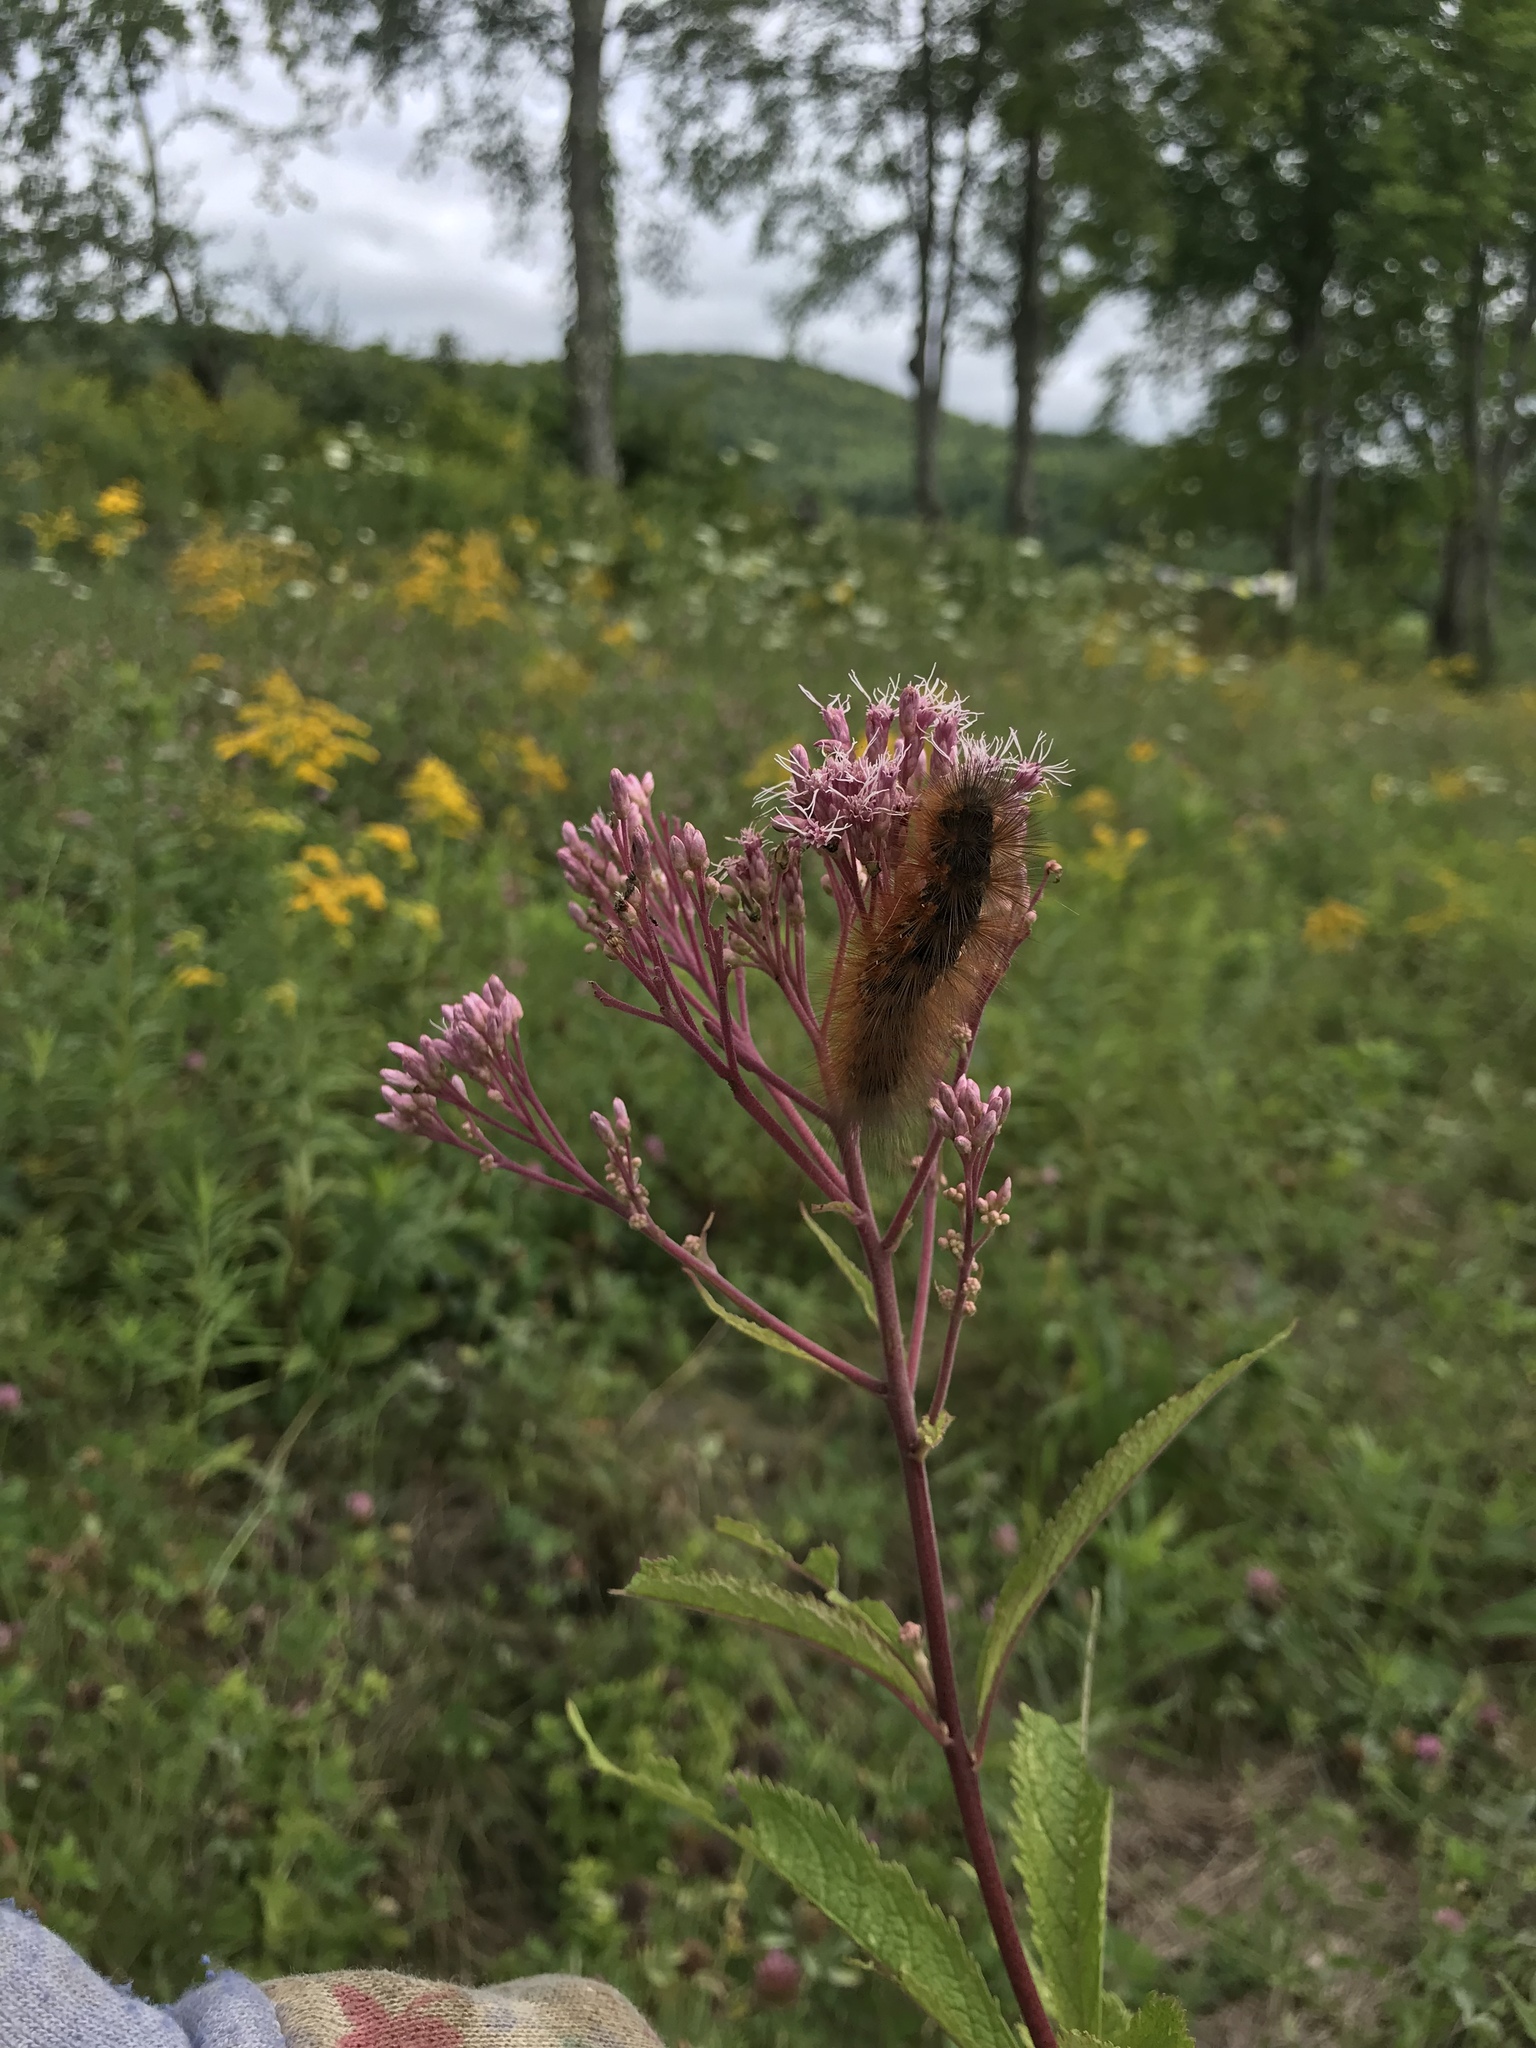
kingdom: Animalia
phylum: Arthropoda
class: Insecta
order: Lepidoptera
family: Erebidae
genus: Estigmene
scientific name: Estigmene acrea
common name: Salt marsh moth
